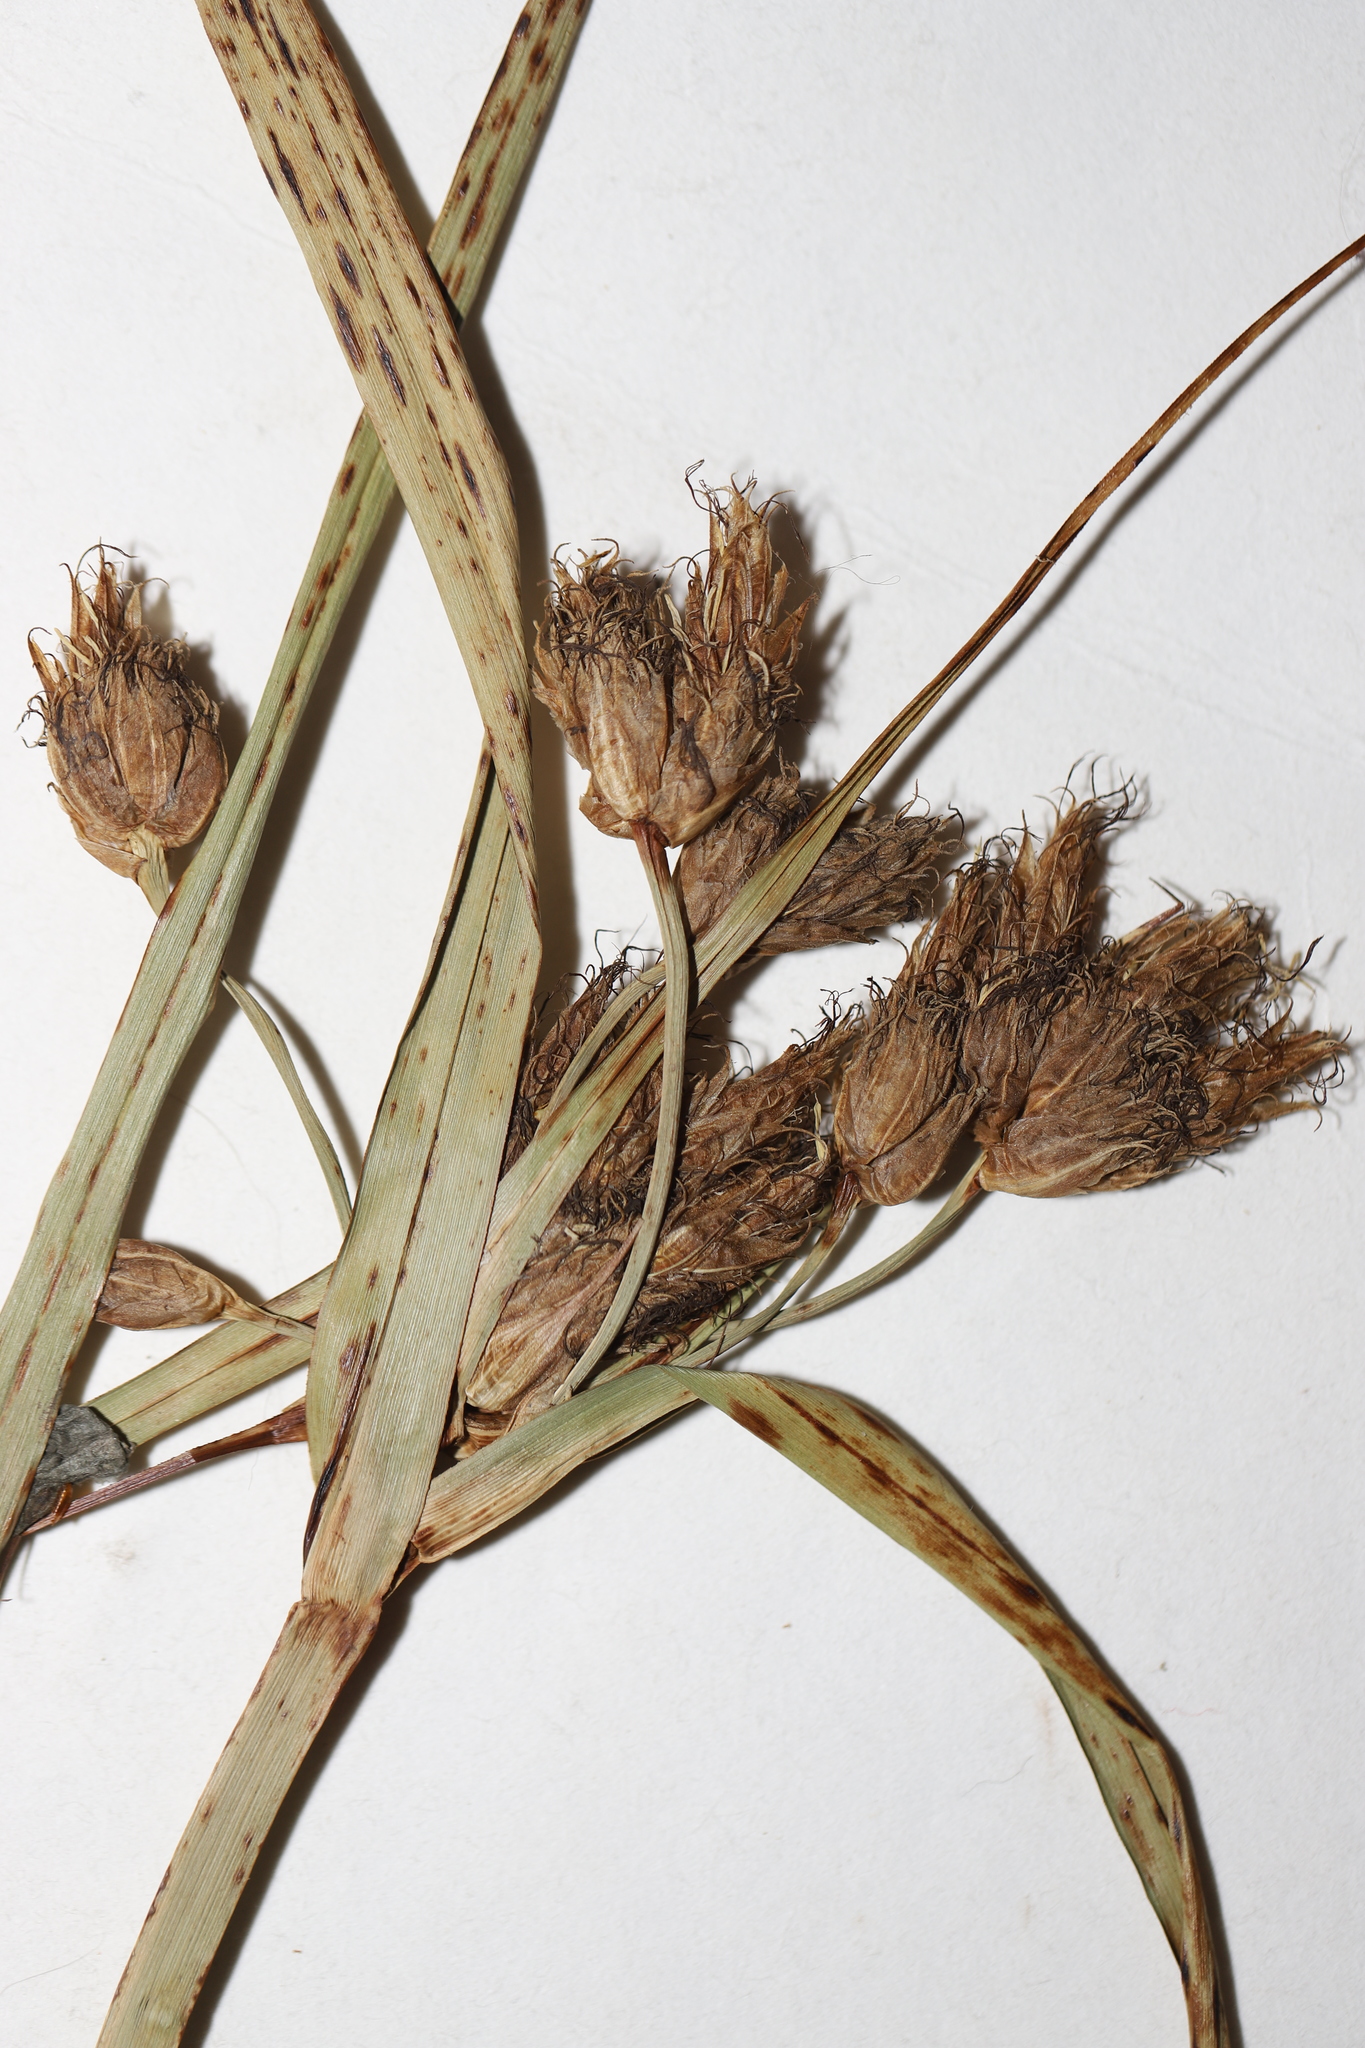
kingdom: Plantae
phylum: Tracheophyta
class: Liliopsida
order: Poales
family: Cyperaceae
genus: Bolboschoenus
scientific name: Bolboschoenus fluviatilis
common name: River bulrush
